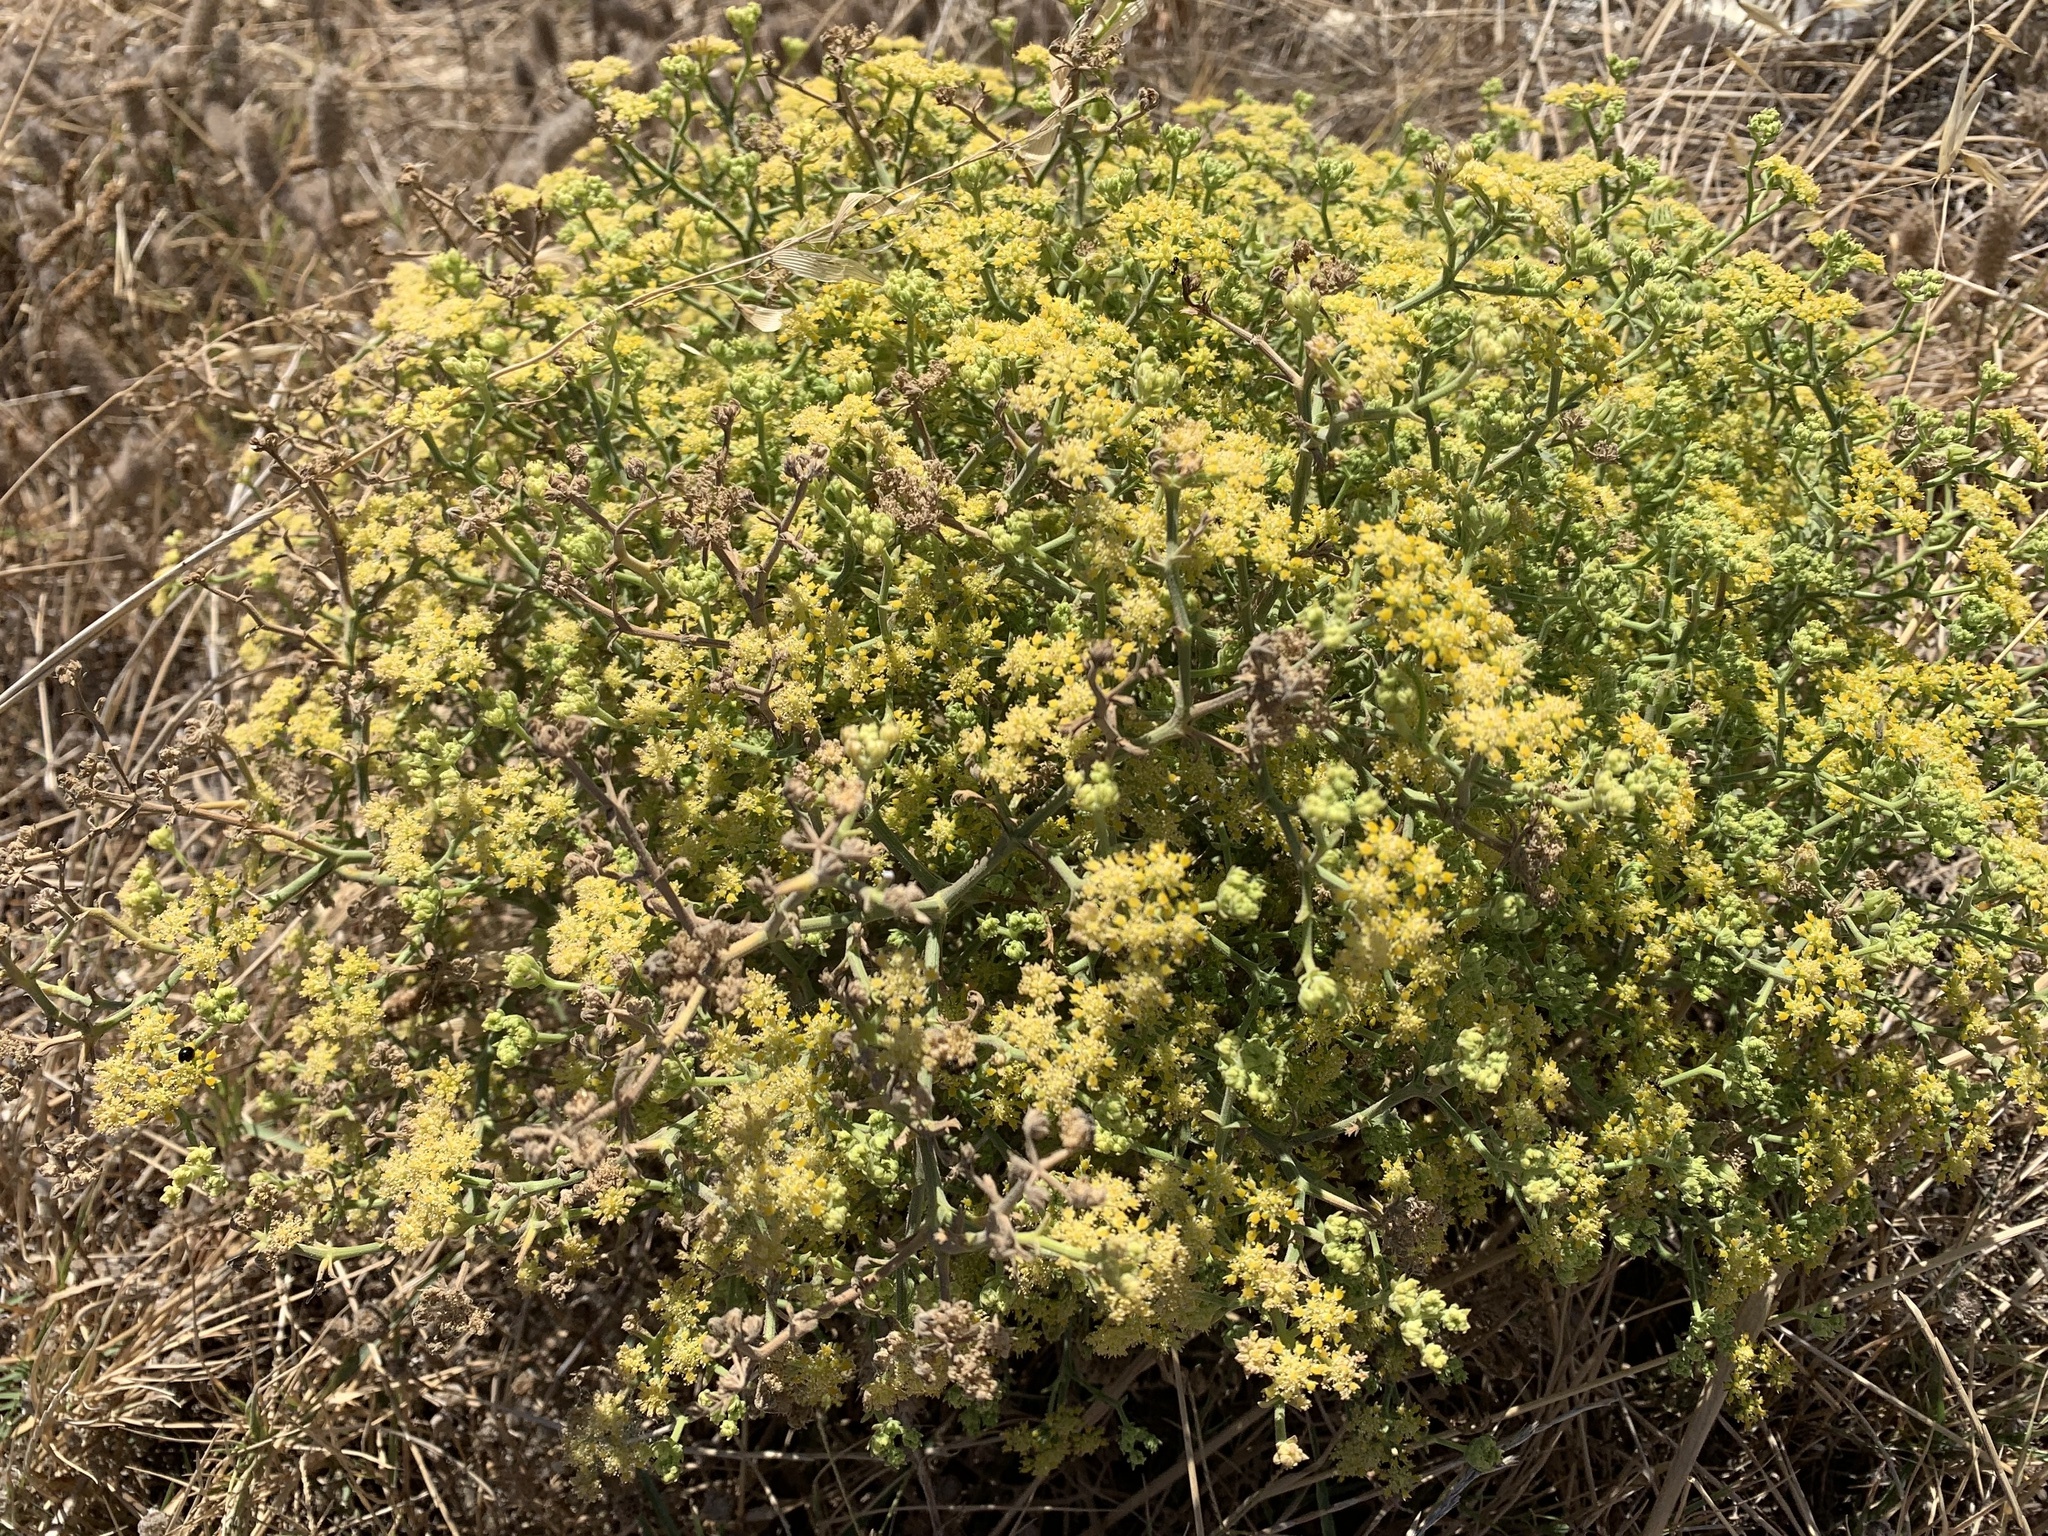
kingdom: Plantae
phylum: Tracheophyta
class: Magnoliopsida
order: Apiales
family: Apiaceae
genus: Echinophora
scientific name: Echinophora sibthorpiana
